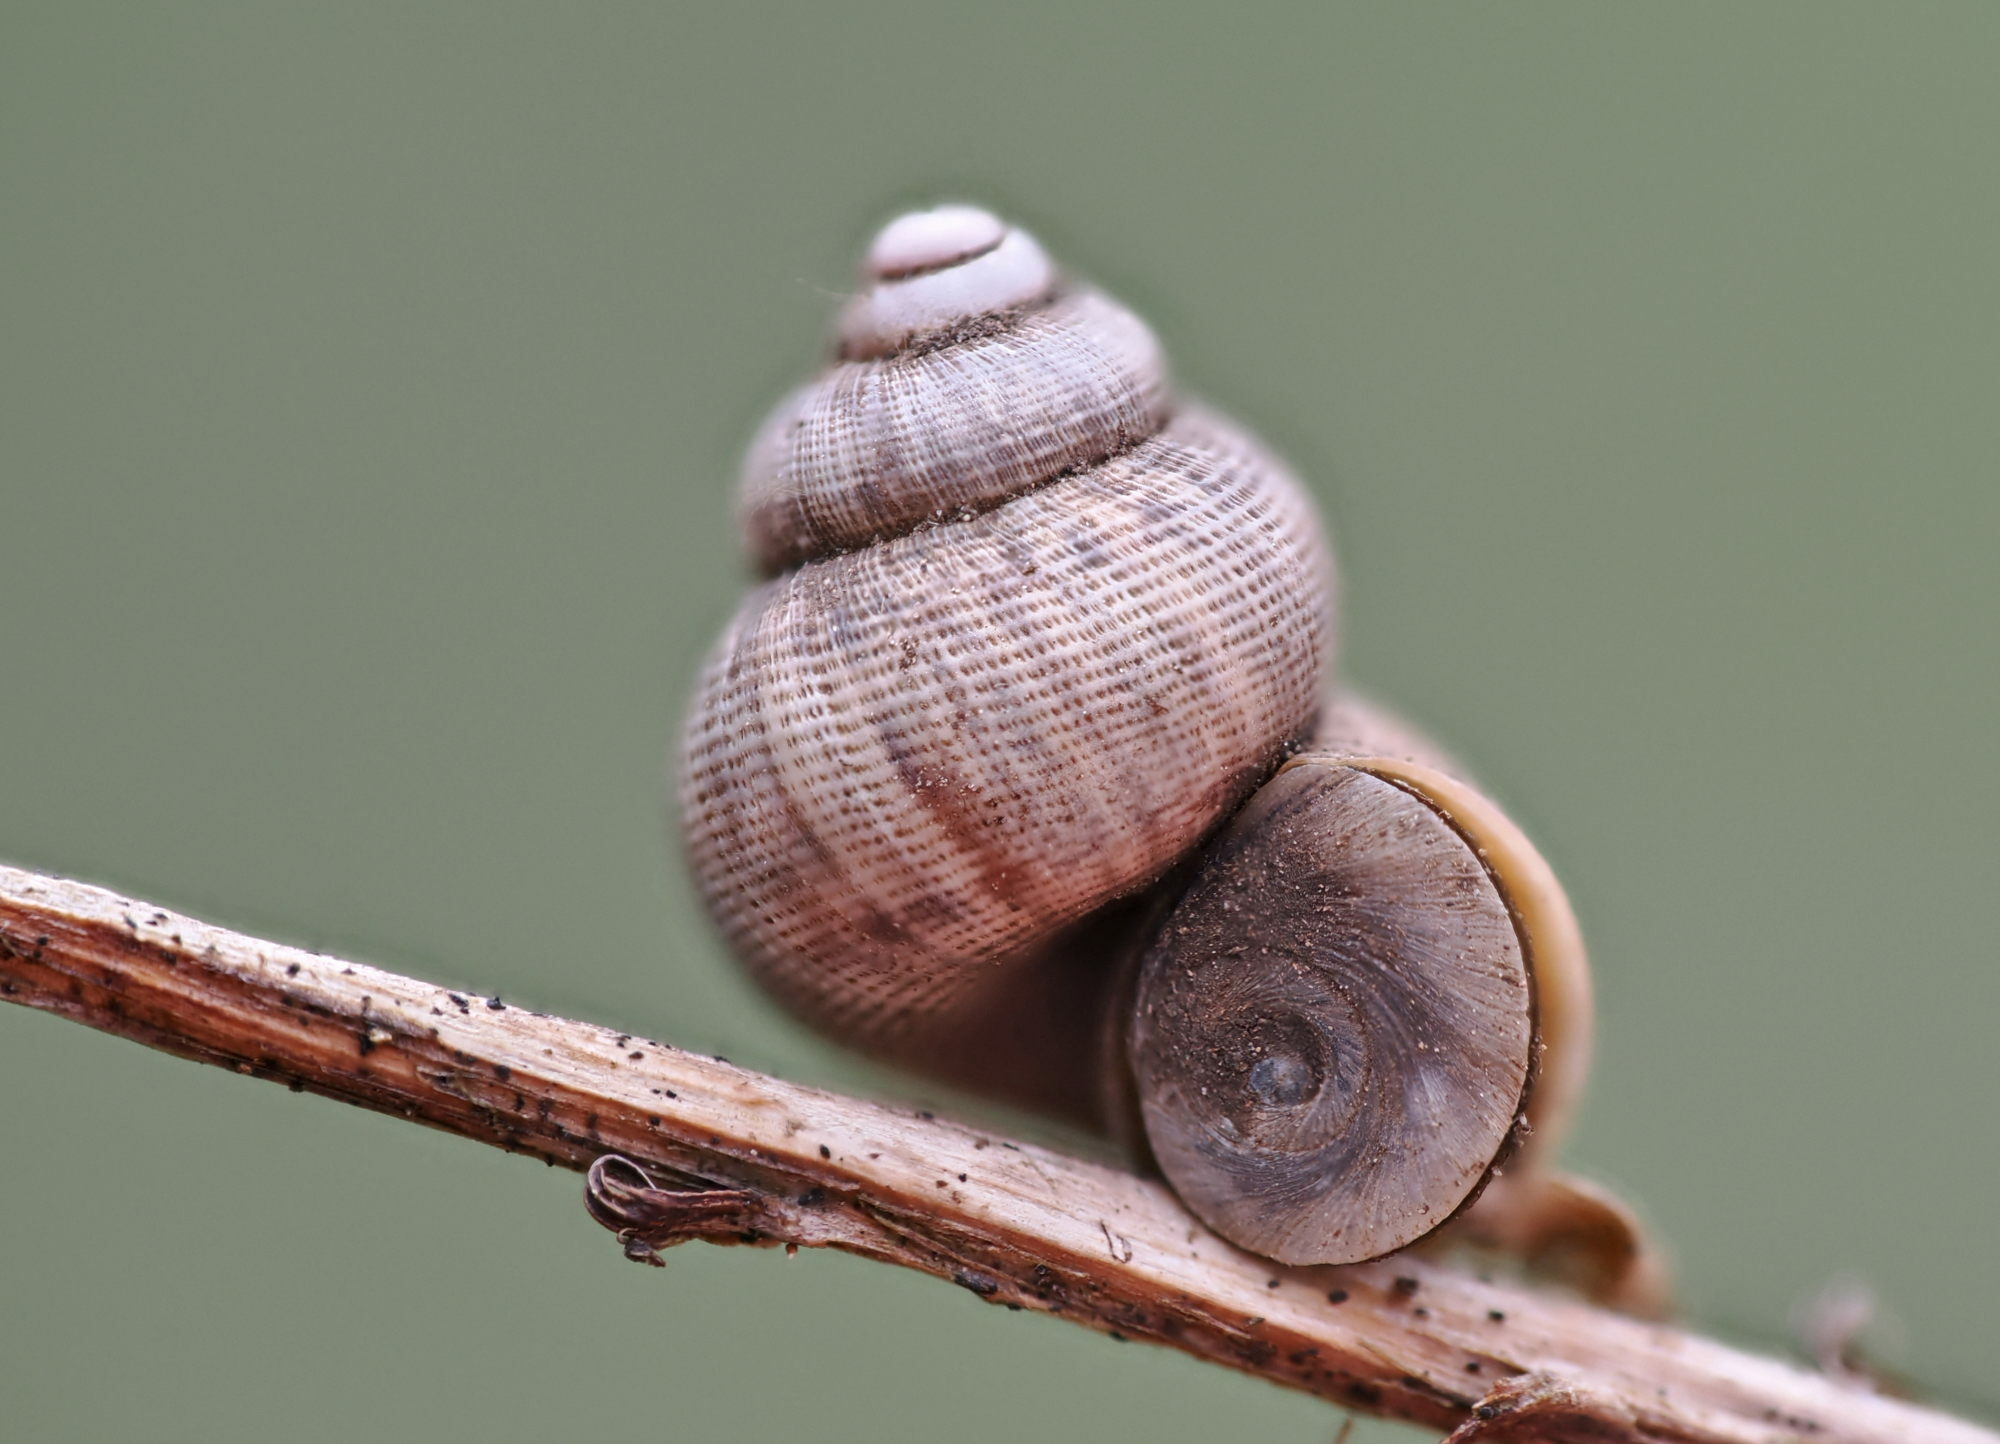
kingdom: Animalia
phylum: Mollusca
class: Gastropoda
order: Littorinimorpha
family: Pomatiidae
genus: Pomatias
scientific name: Pomatias elegans
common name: Red-mouthed snail
